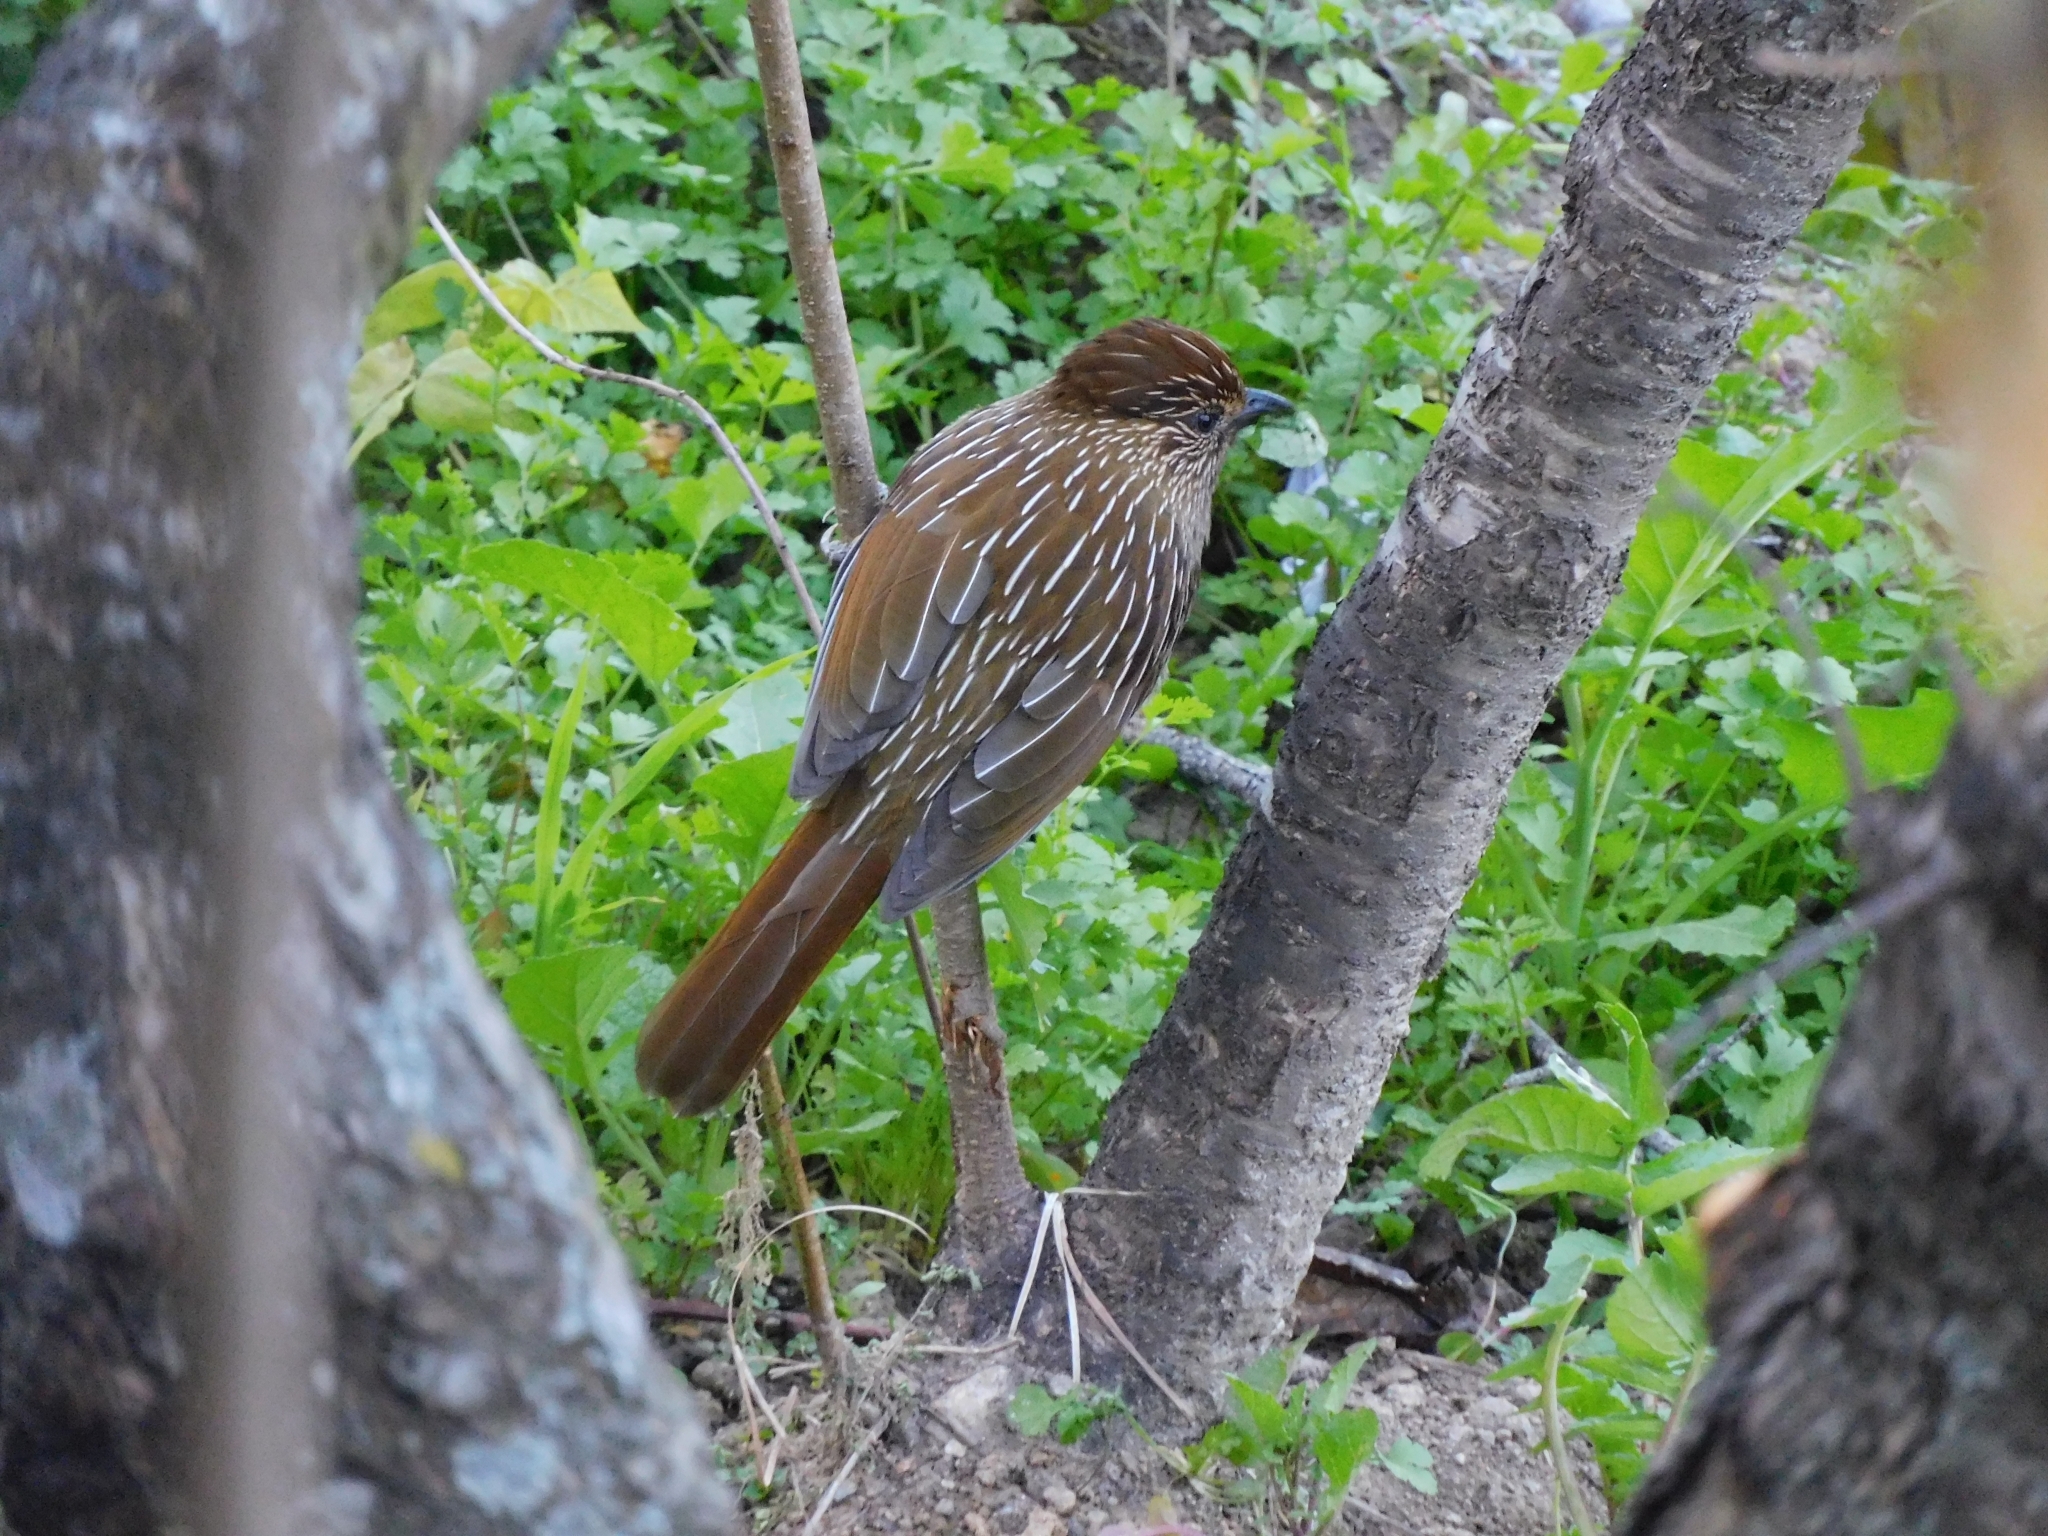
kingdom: Animalia
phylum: Chordata
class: Aves
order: Passeriformes
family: Leiothrichidae
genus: Garrulax
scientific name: Garrulax striatus
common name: Striated laughingthrush
